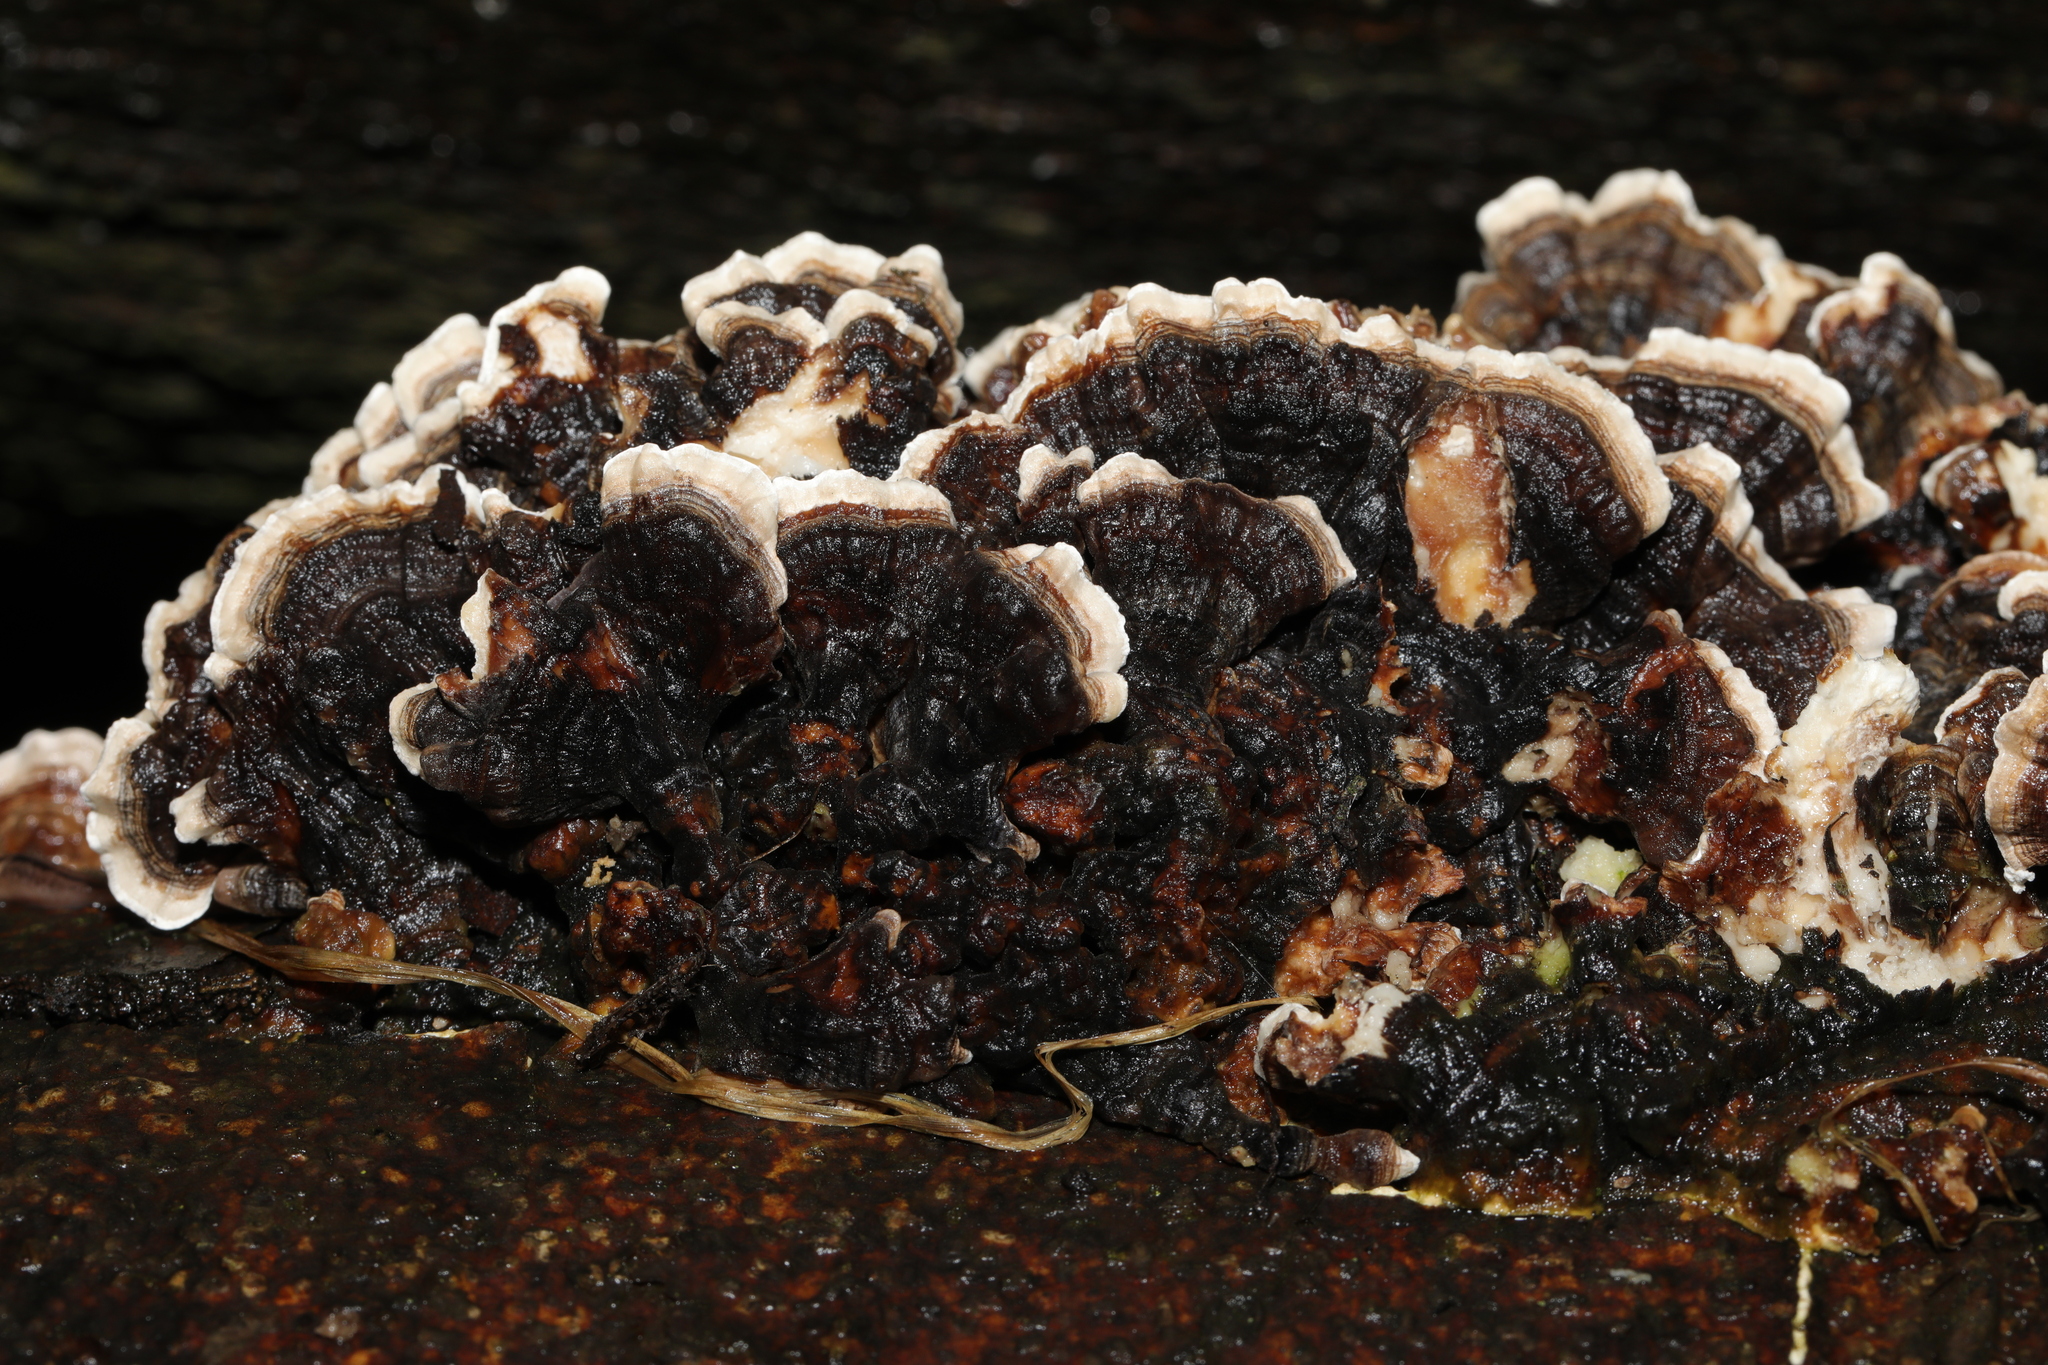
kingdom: Fungi
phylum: Basidiomycota
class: Agaricomycetes
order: Polyporales
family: Polyporaceae
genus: Trametes
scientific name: Trametes versicolor
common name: Turkeytail
